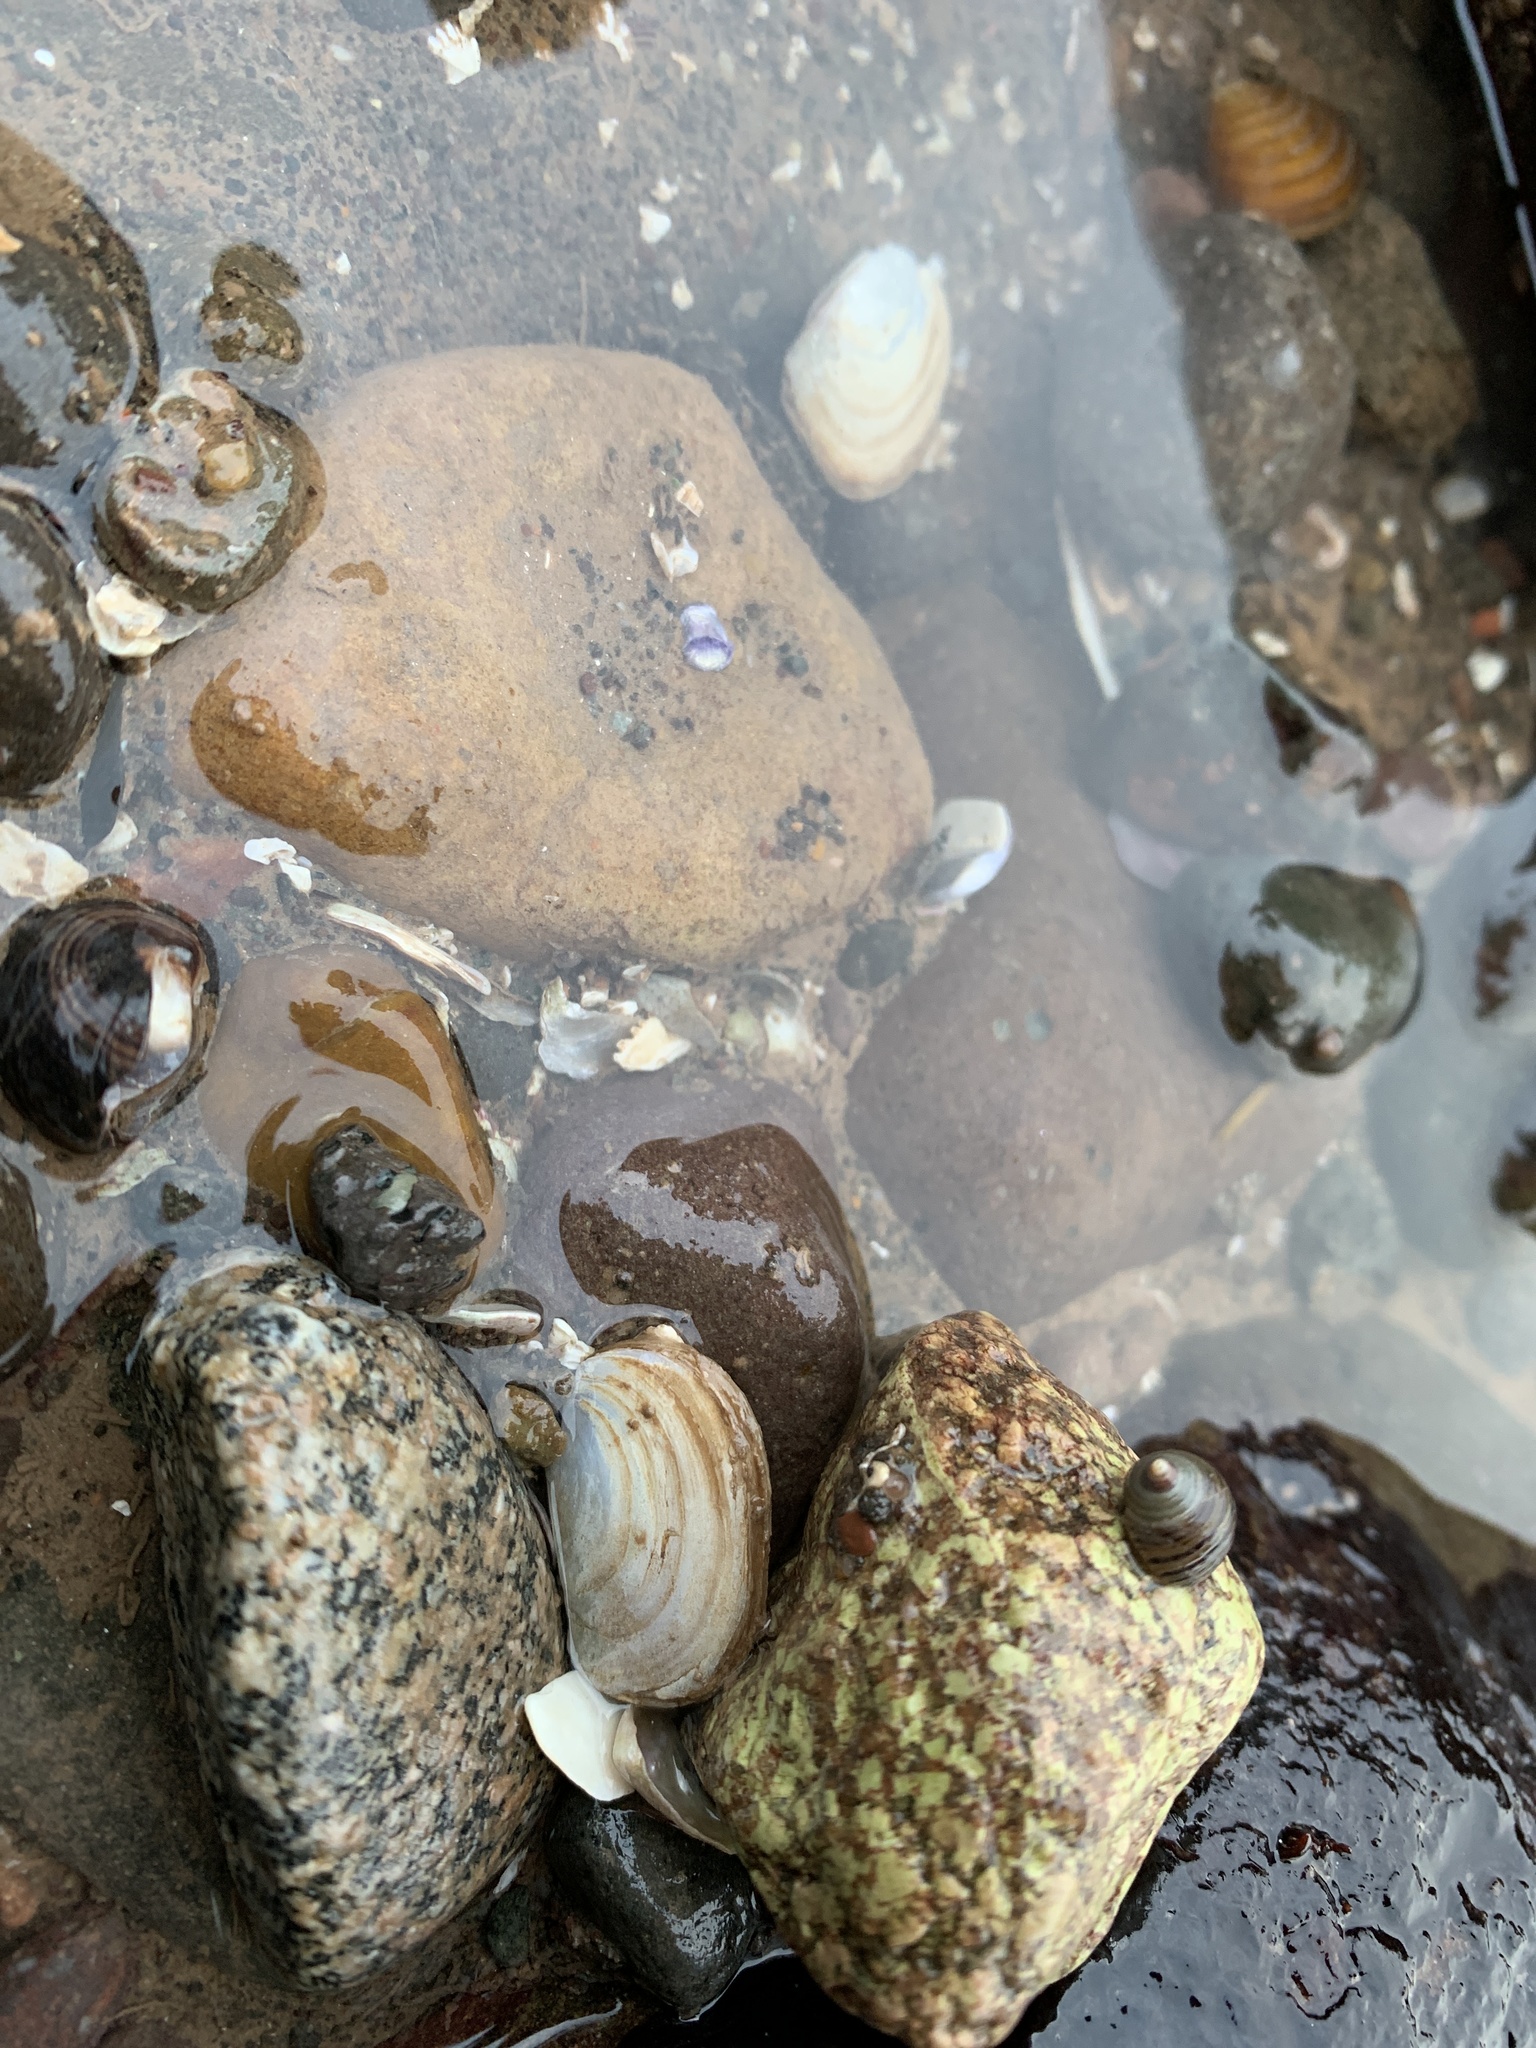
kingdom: Animalia
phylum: Mollusca
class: Bivalvia
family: Pandoridae
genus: Pandora
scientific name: Pandora gouldiana
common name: Rounded pandora
